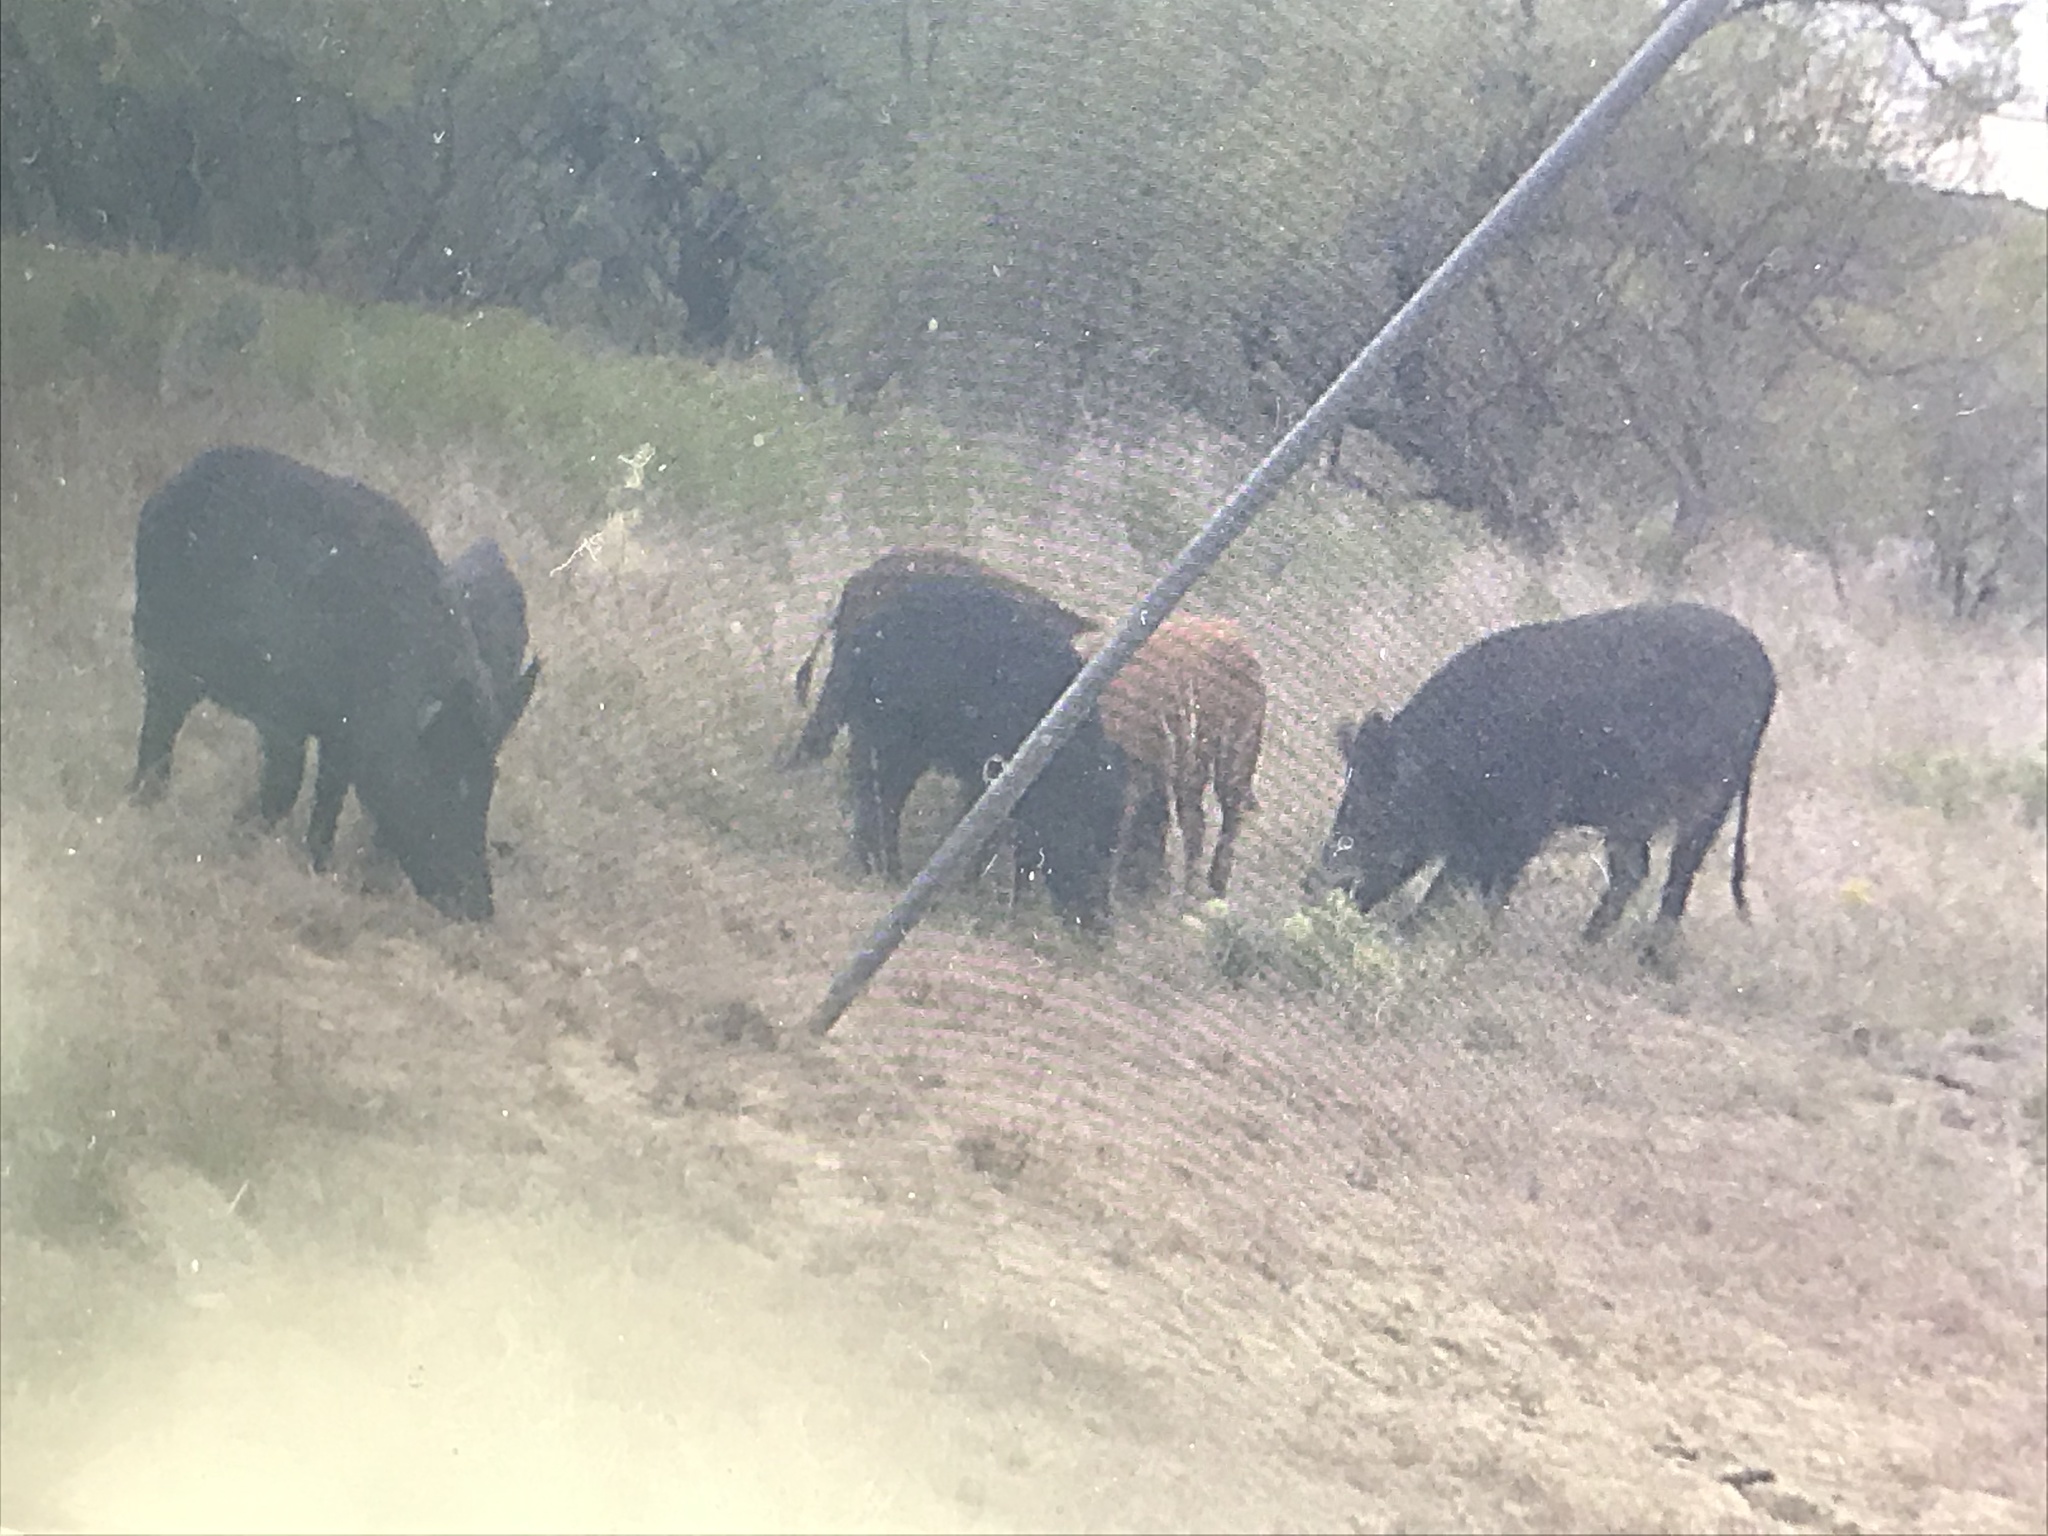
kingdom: Animalia
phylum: Chordata
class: Mammalia
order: Artiodactyla
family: Suidae
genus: Sus
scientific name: Sus scrofa
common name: Wild boar
